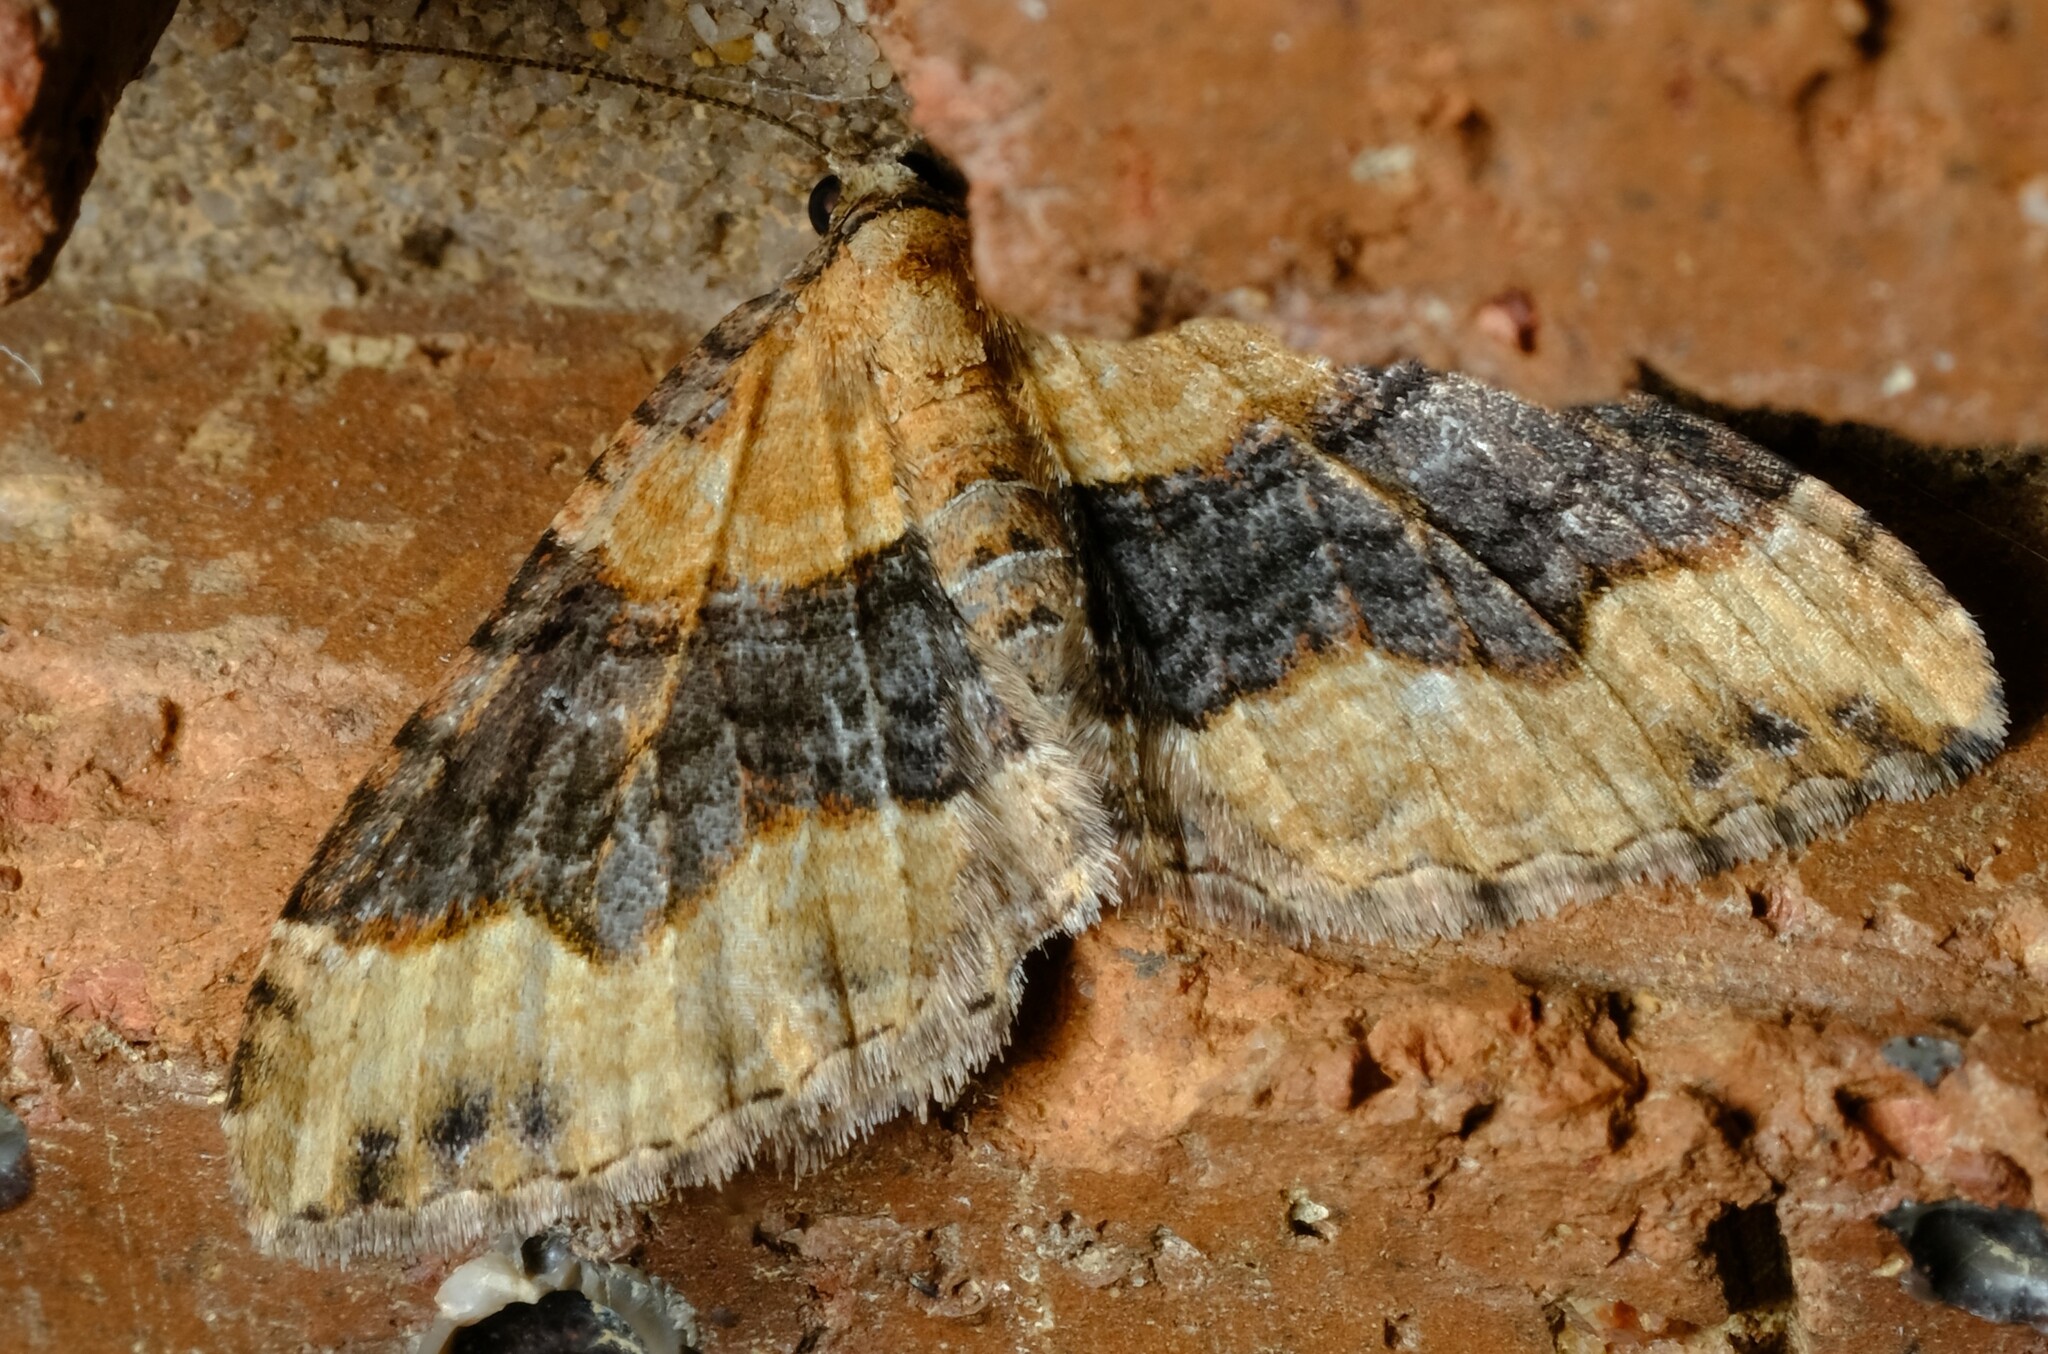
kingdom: Animalia
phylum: Arthropoda
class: Insecta
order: Lepidoptera
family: Geometridae
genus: Epyaxa
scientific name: Epyaxa subidaria
